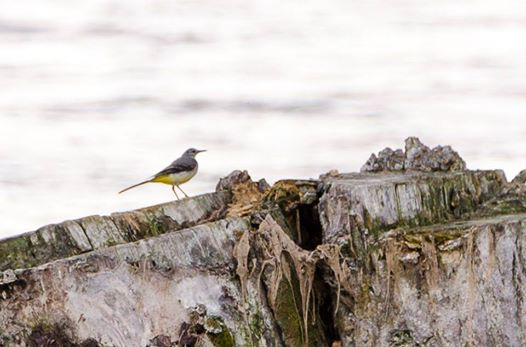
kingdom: Animalia
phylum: Chordata
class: Aves
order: Passeriformes
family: Motacillidae
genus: Motacilla
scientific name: Motacilla cinerea
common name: Grey wagtail
